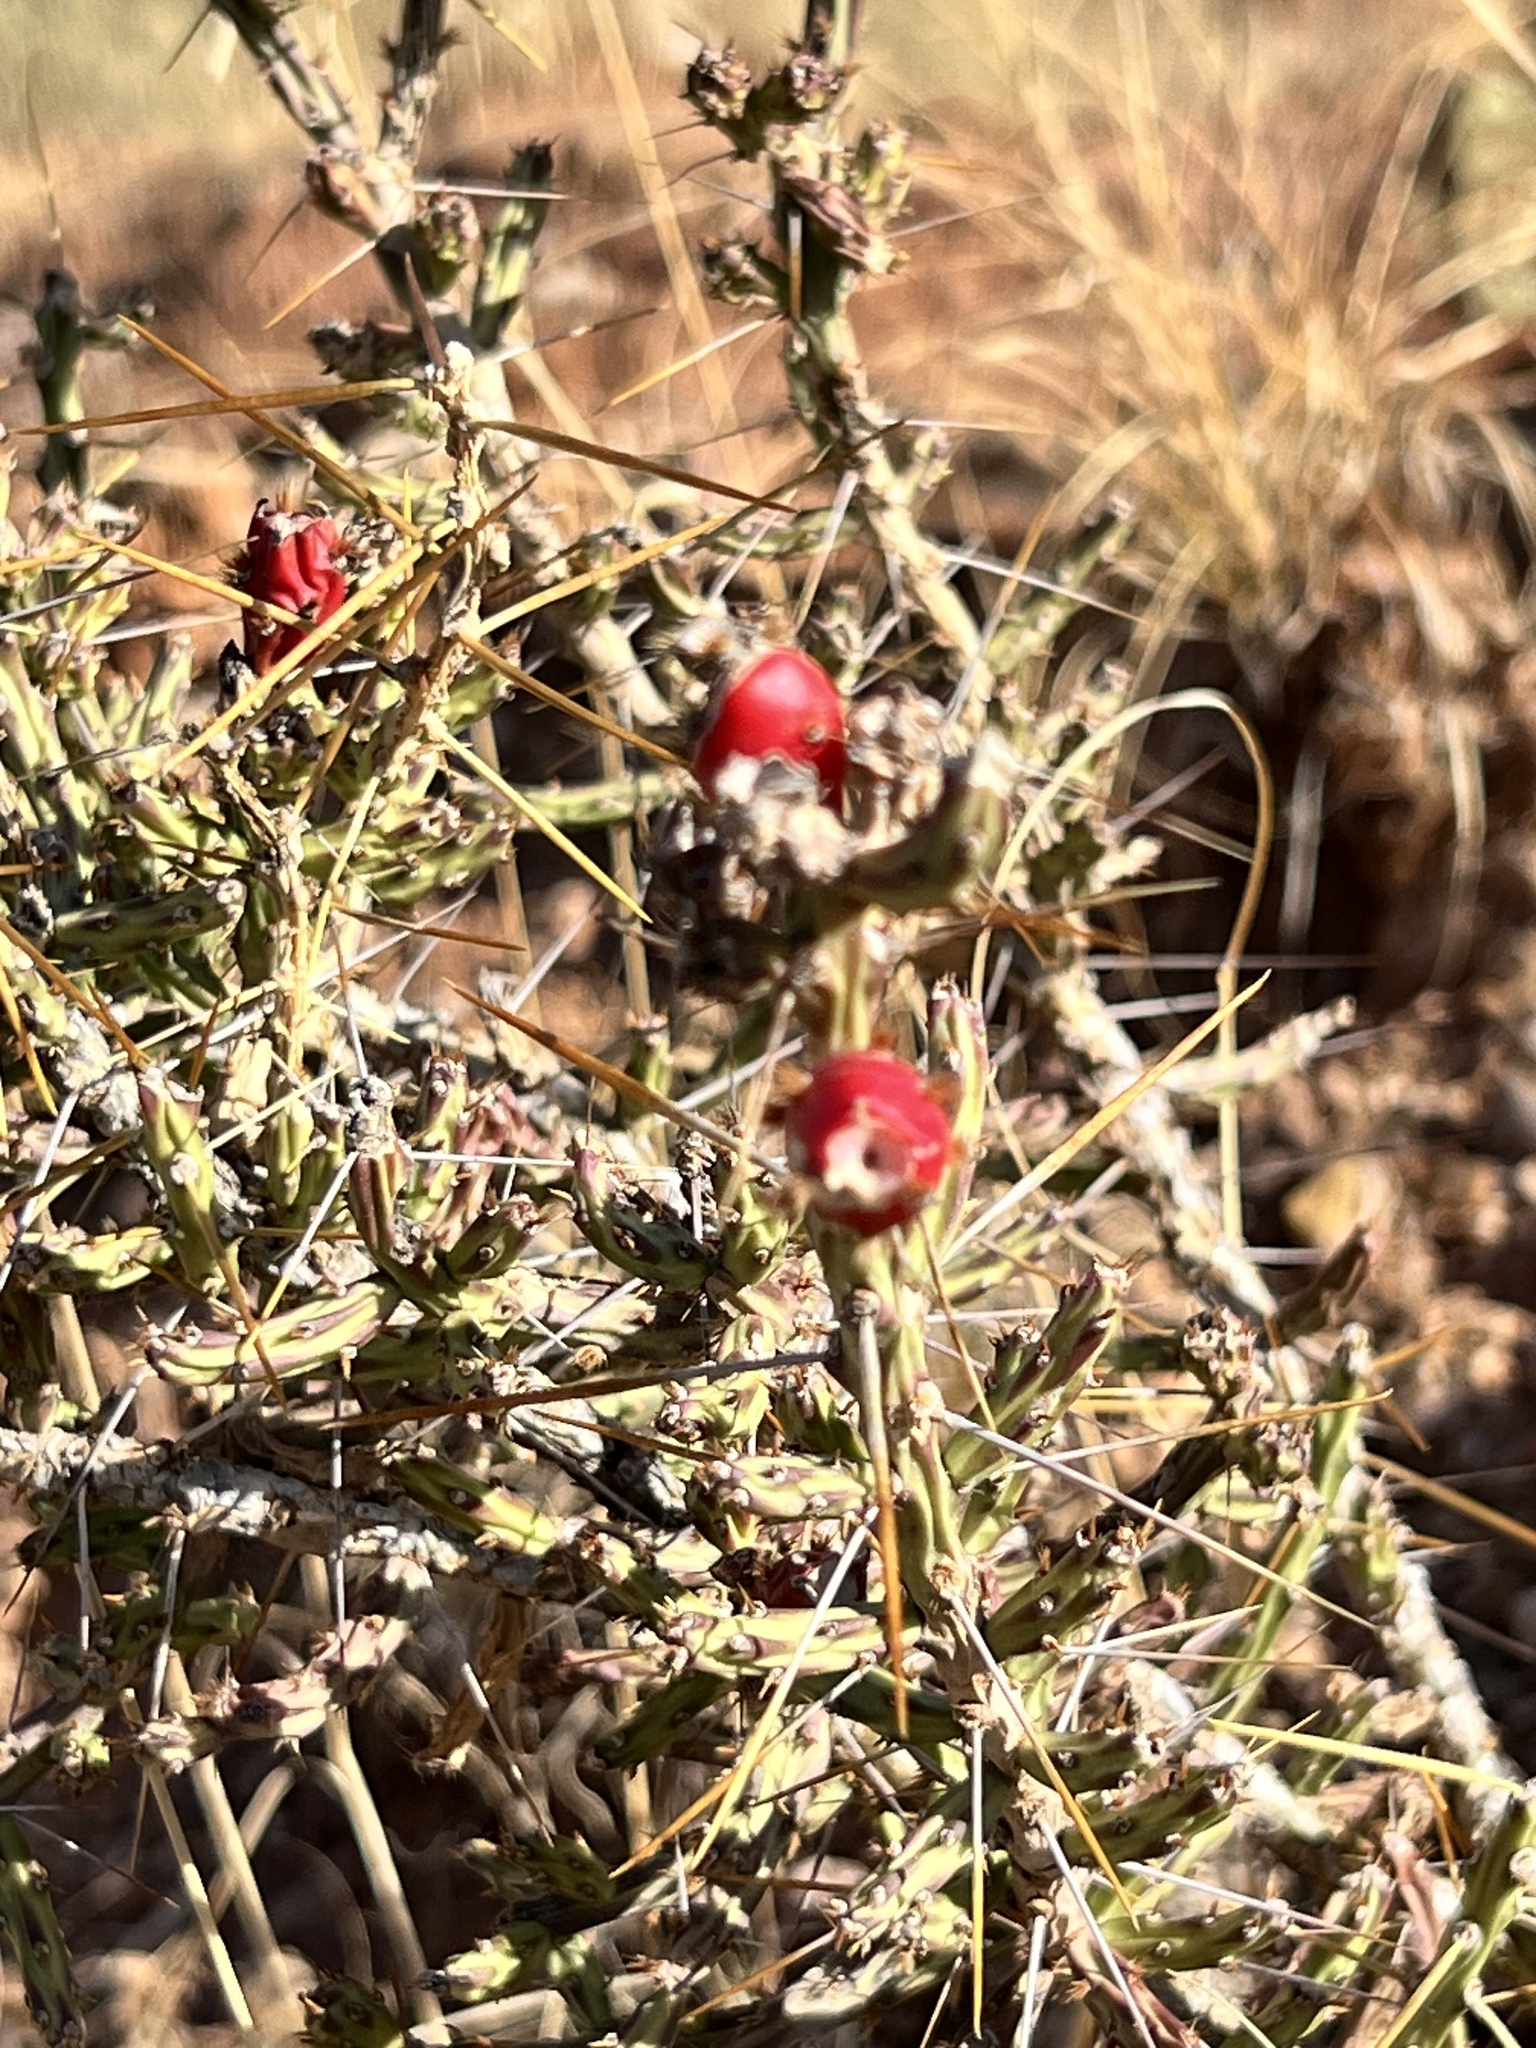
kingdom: Plantae
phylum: Tracheophyta
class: Magnoliopsida
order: Caryophyllales
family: Cactaceae
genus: Cylindropuntia
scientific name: Cylindropuntia leptocaulis
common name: Christmas cactus
